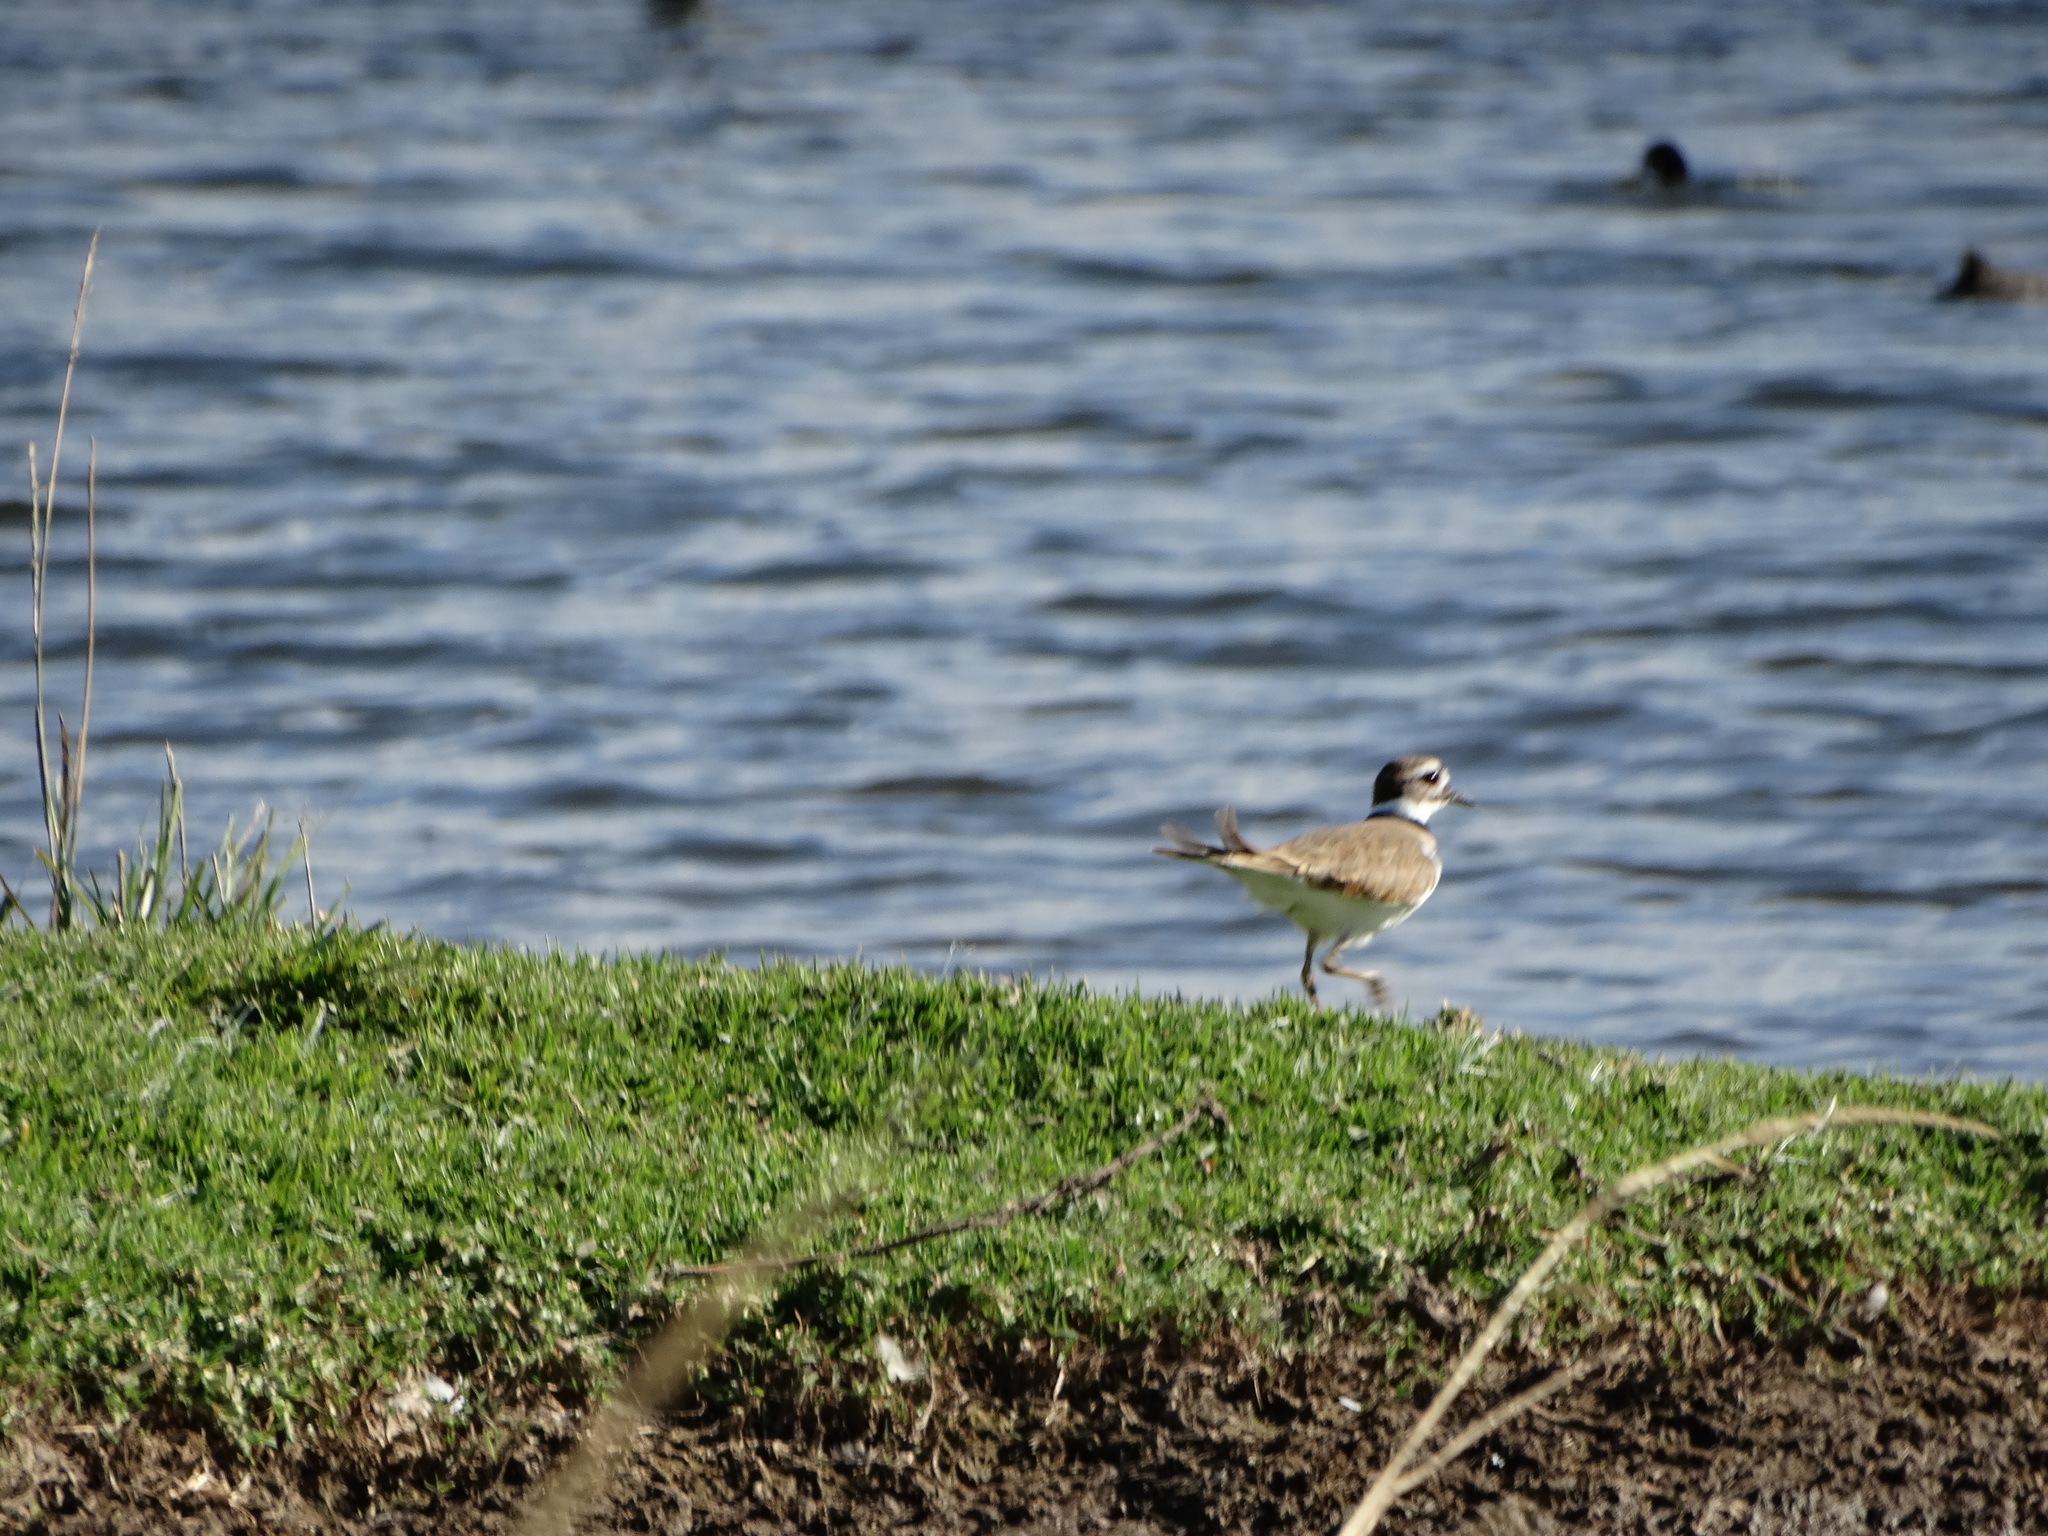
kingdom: Animalia
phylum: Chordata
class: Aves
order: Charadriiformes
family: Charadriidae
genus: Charadrius
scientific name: Charadrius vociferus
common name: Killdeer
